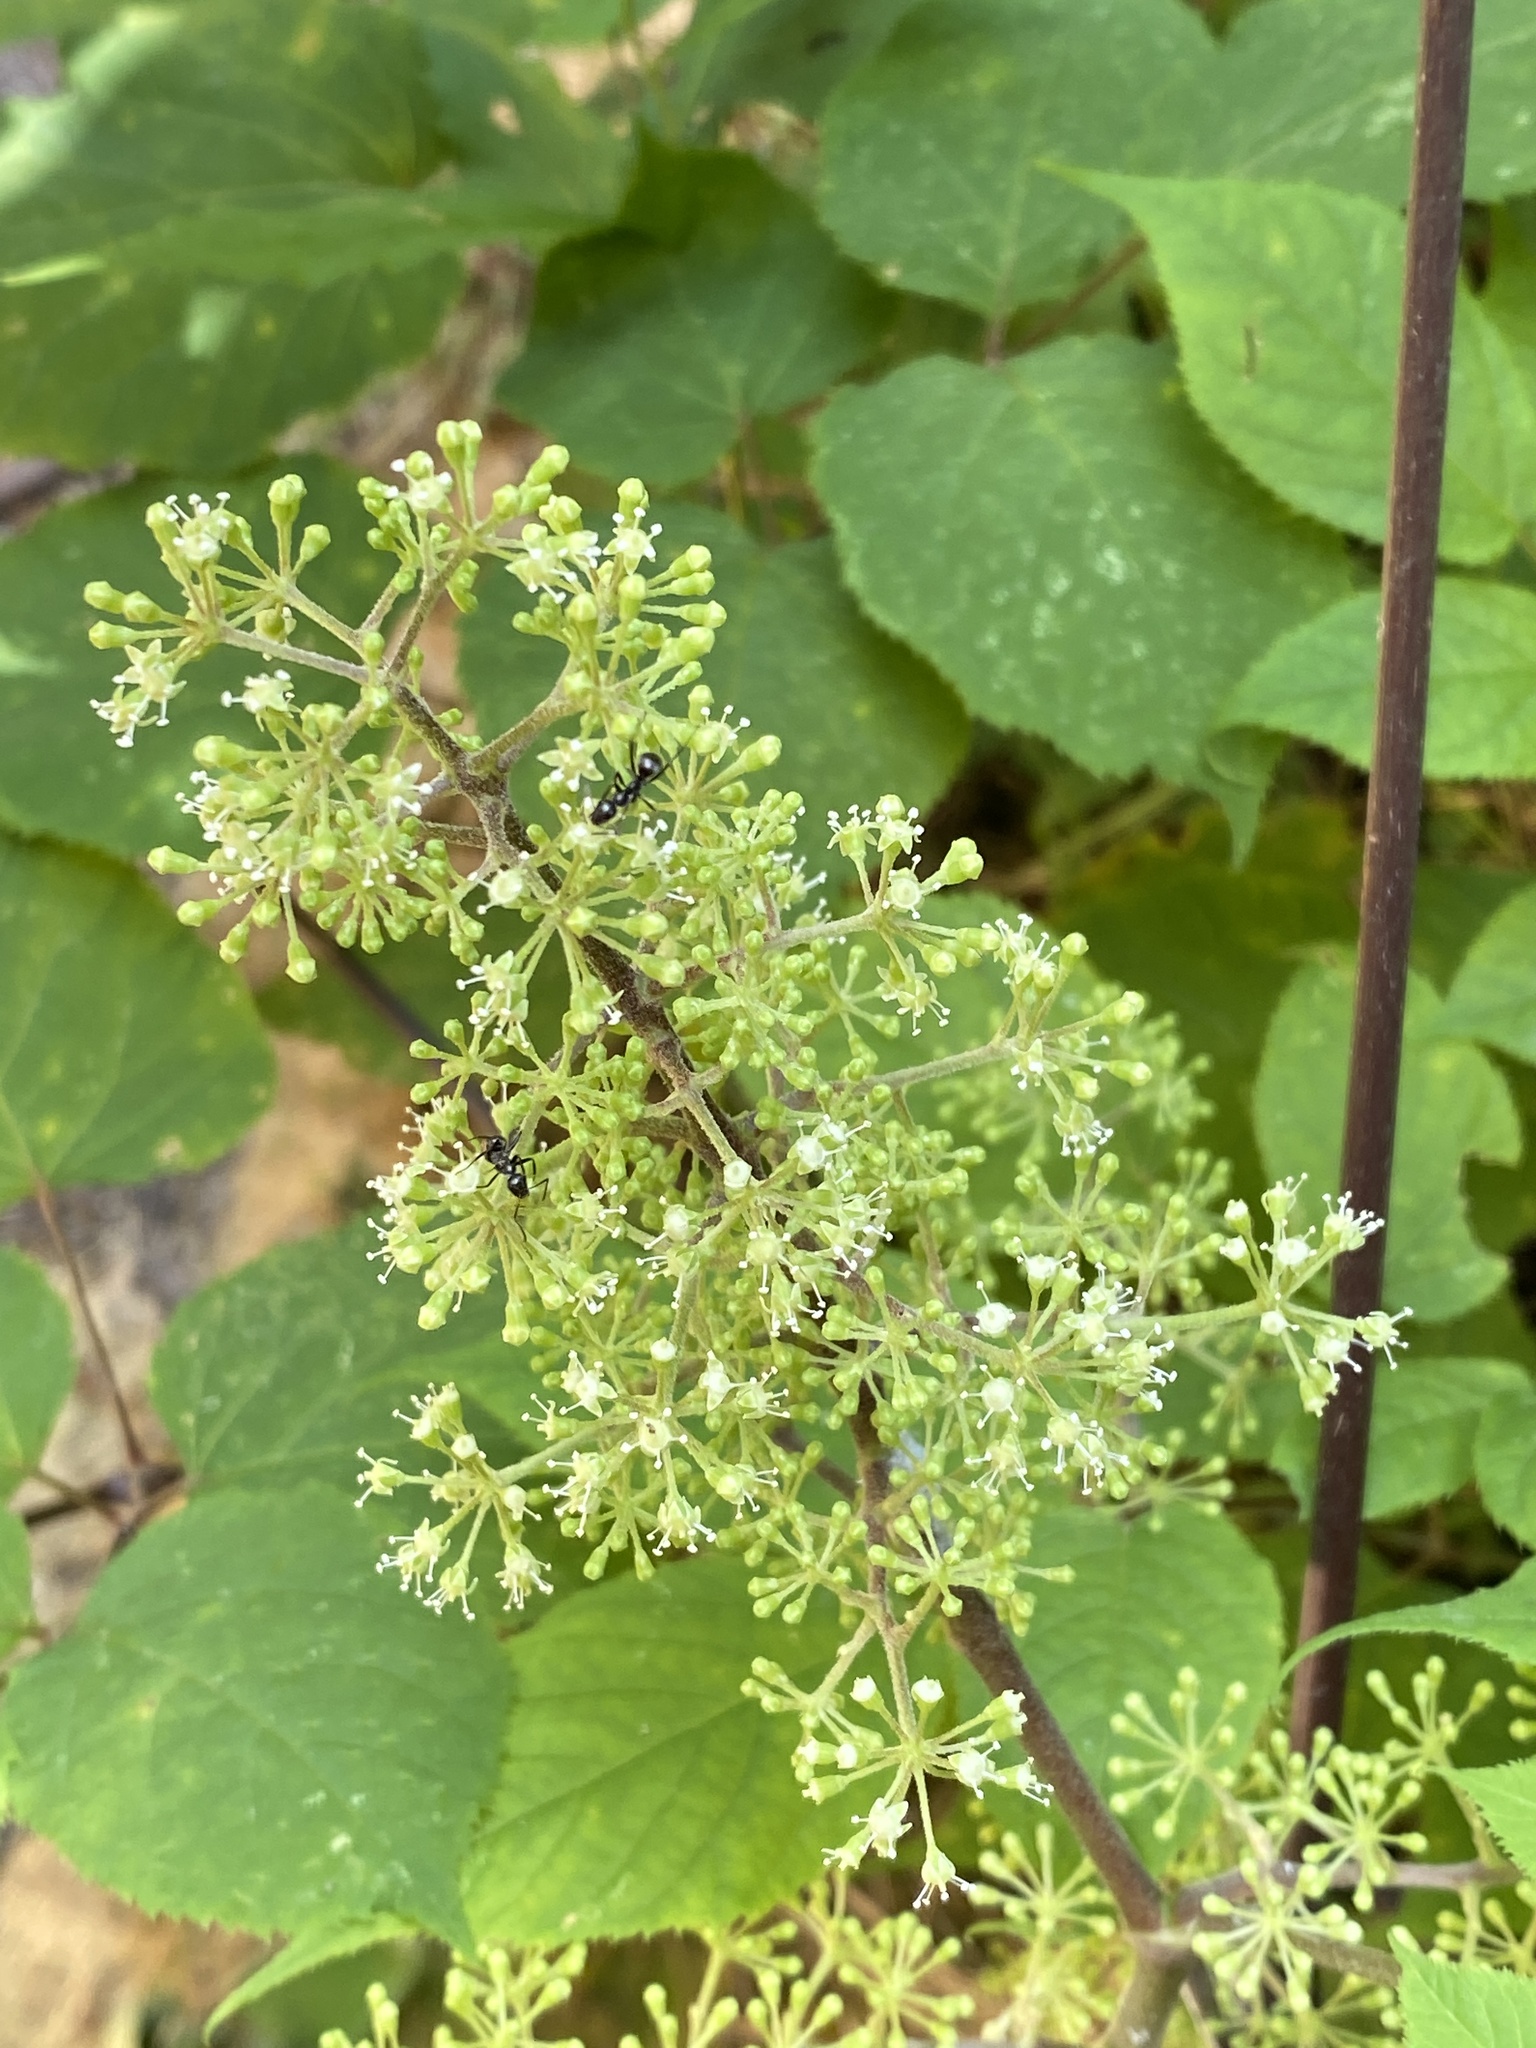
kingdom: Plantae
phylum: Tracheophyta
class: Magnoliopsida
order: Apiales
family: Araliaceae
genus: Aralia
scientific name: Aralia racemosa
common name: American-spikenard
